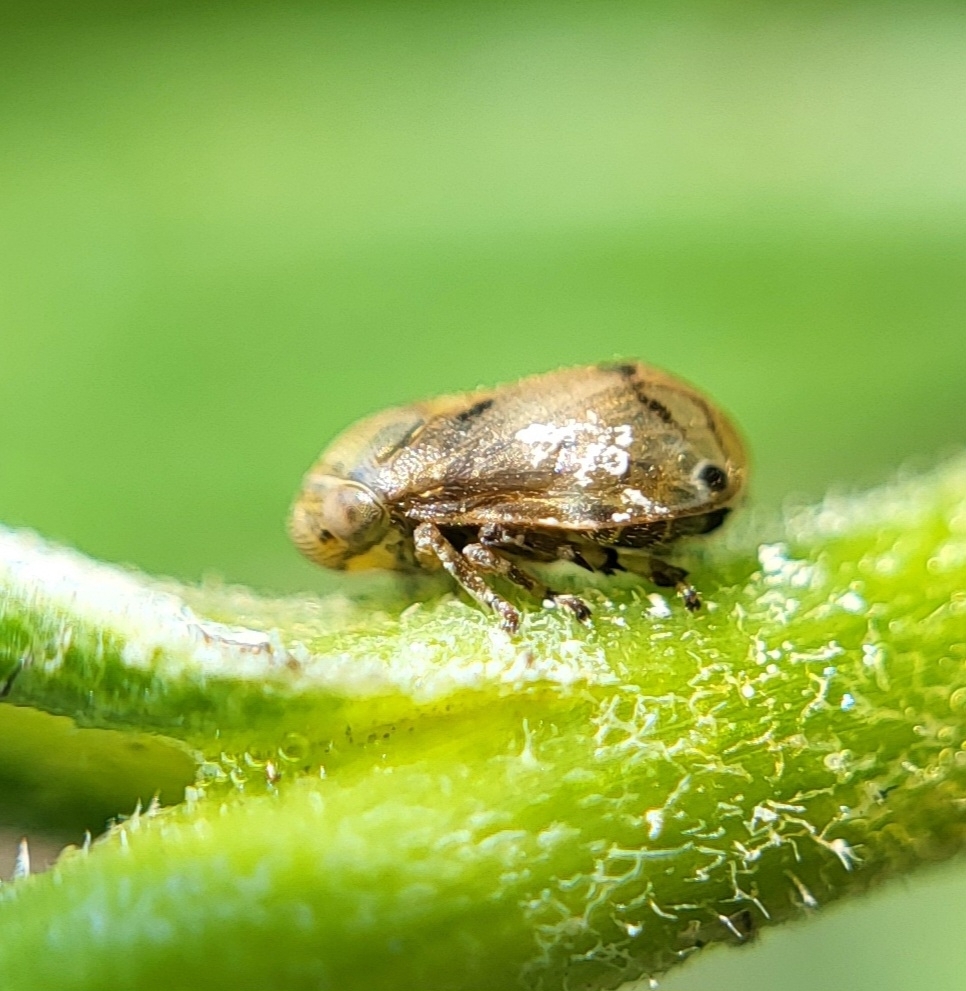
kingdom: Animalia
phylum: Arthropoda
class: Insecta
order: Hemiptera
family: Clastopteridae
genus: Clastoptera
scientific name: Clastoptera xanthocephala
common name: Sunflower spittlebug
